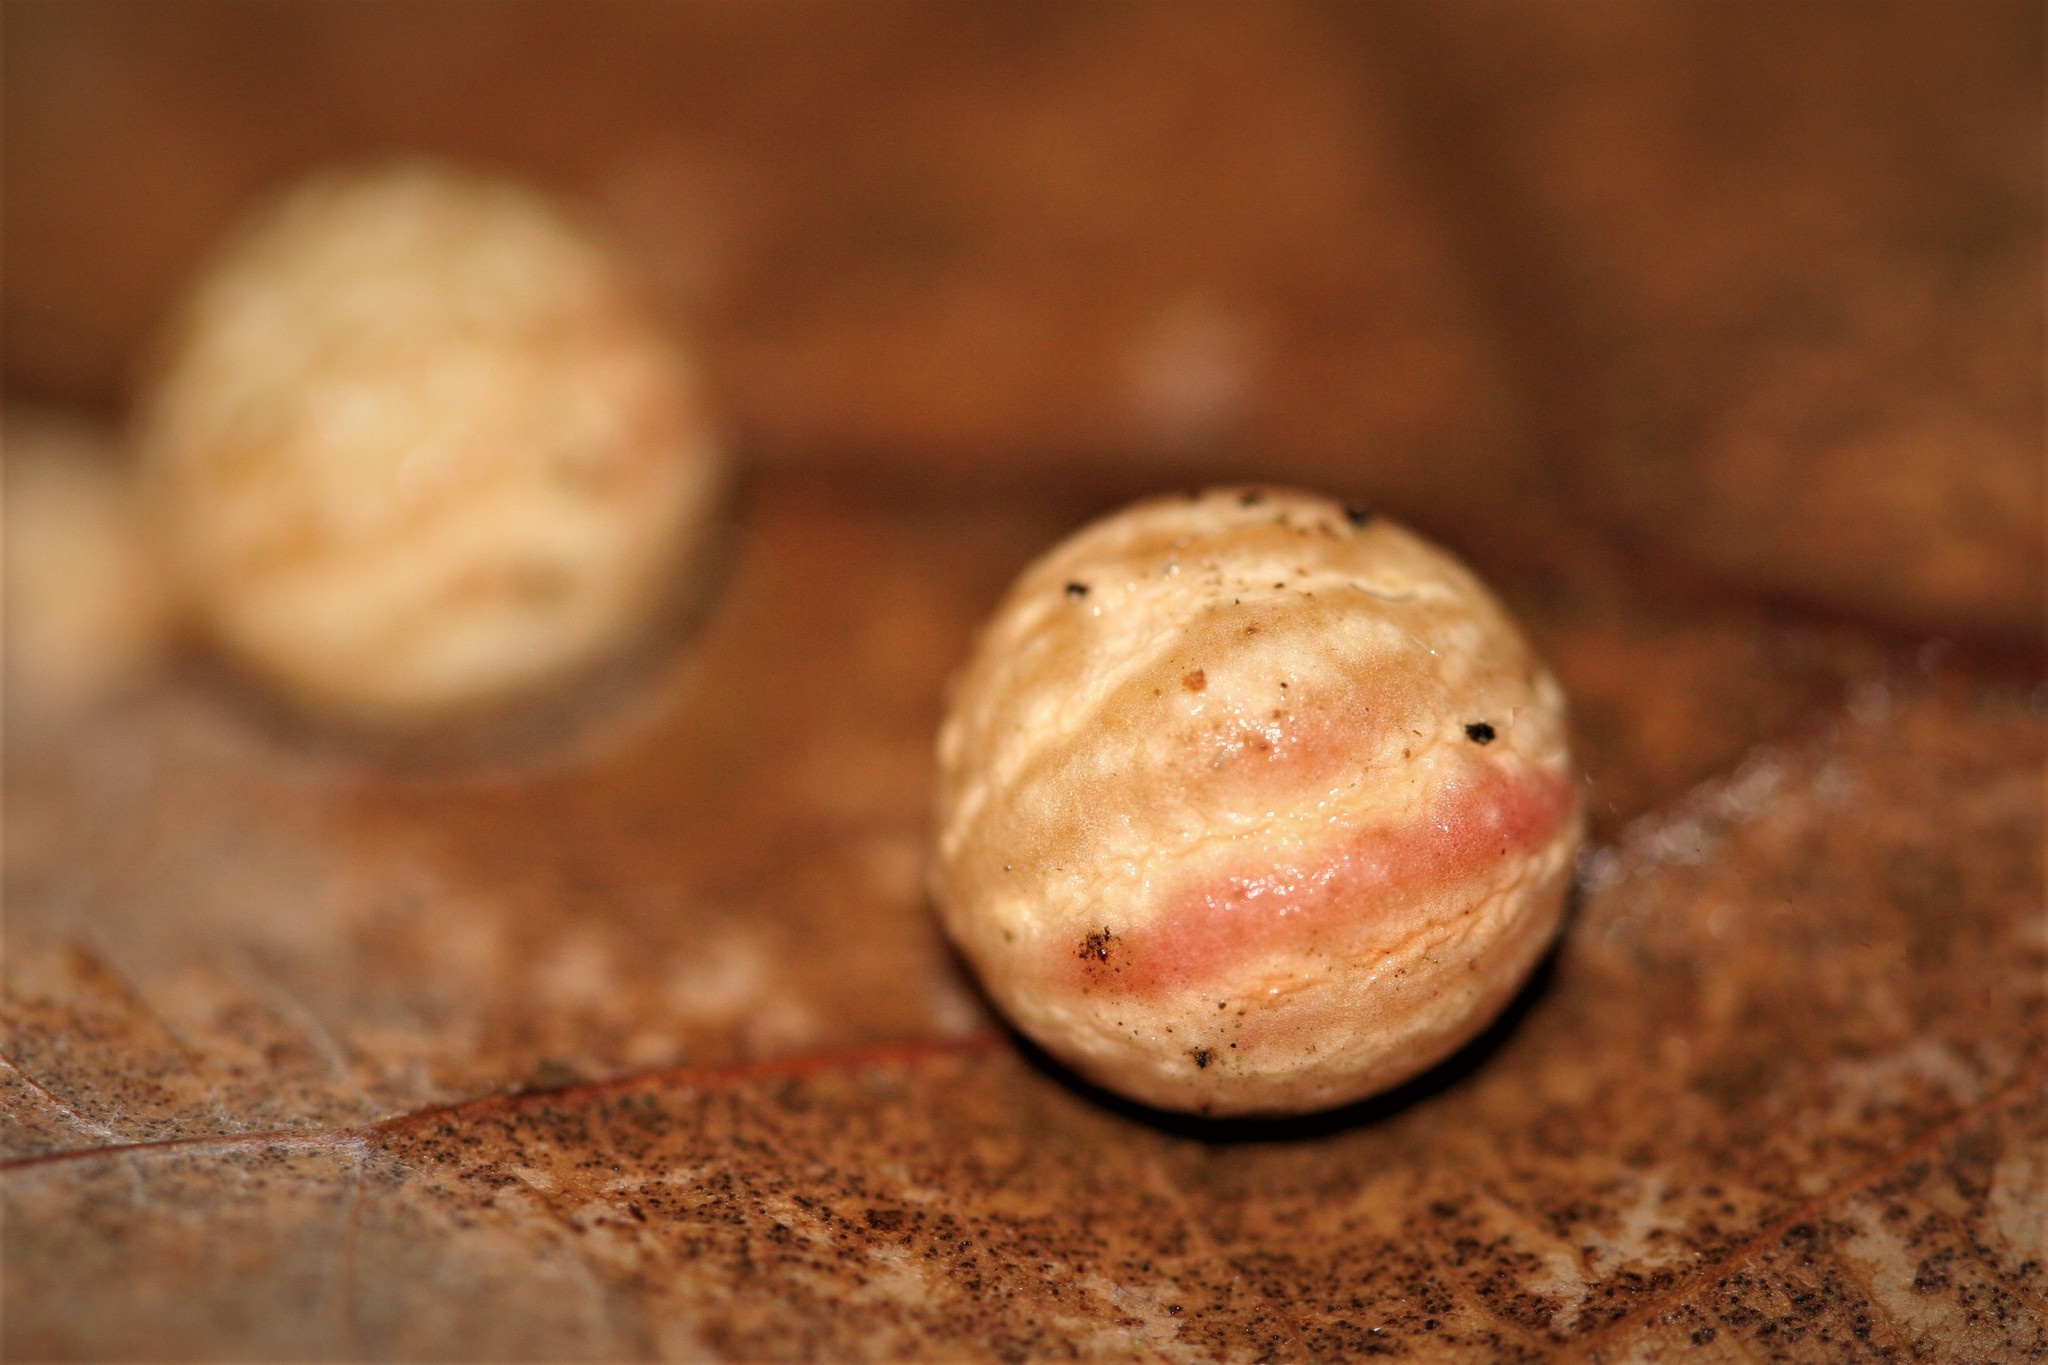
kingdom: Animalia
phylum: Arthropoda
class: Insecta
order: Hymenoptera
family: Cynipidae
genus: Cynips
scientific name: Cynips longiventris
